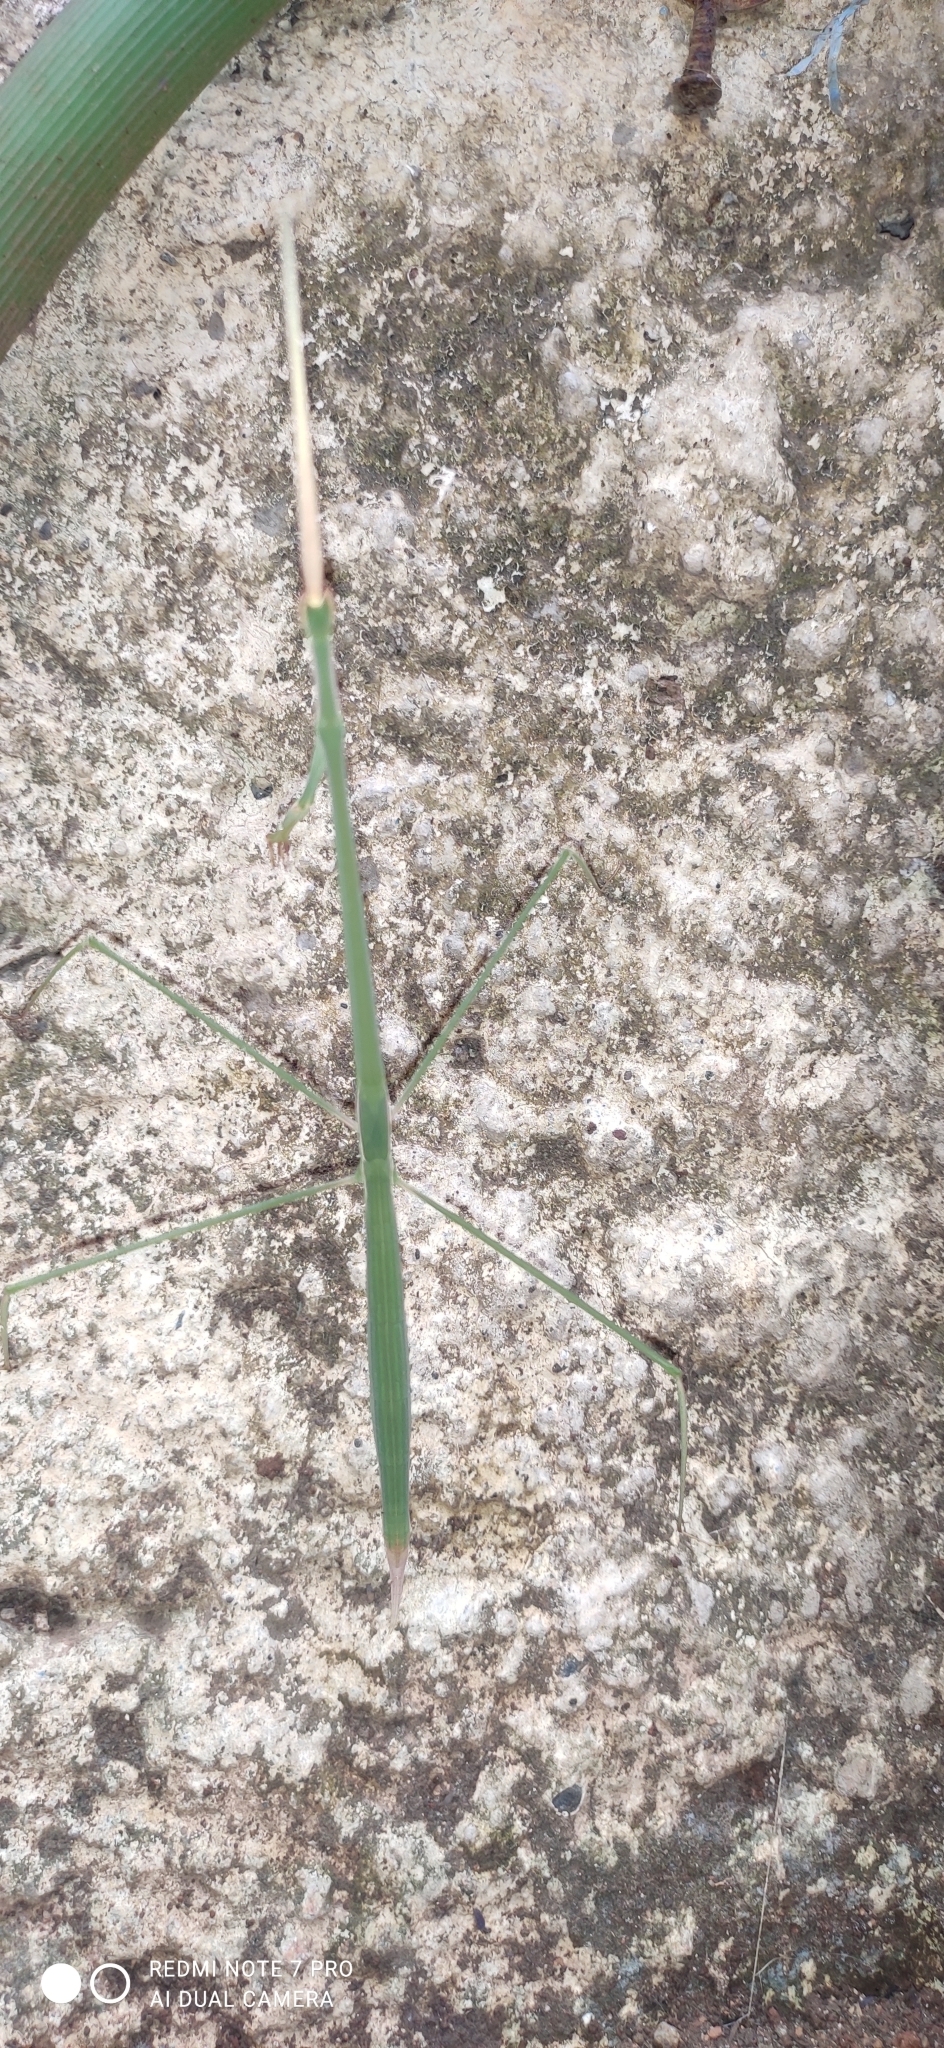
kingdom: Animalia
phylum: Arthropoda
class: Insecta
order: Mantodea
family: Eremiaphilidae
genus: Schizocephala
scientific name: Schizocephala bicornis
